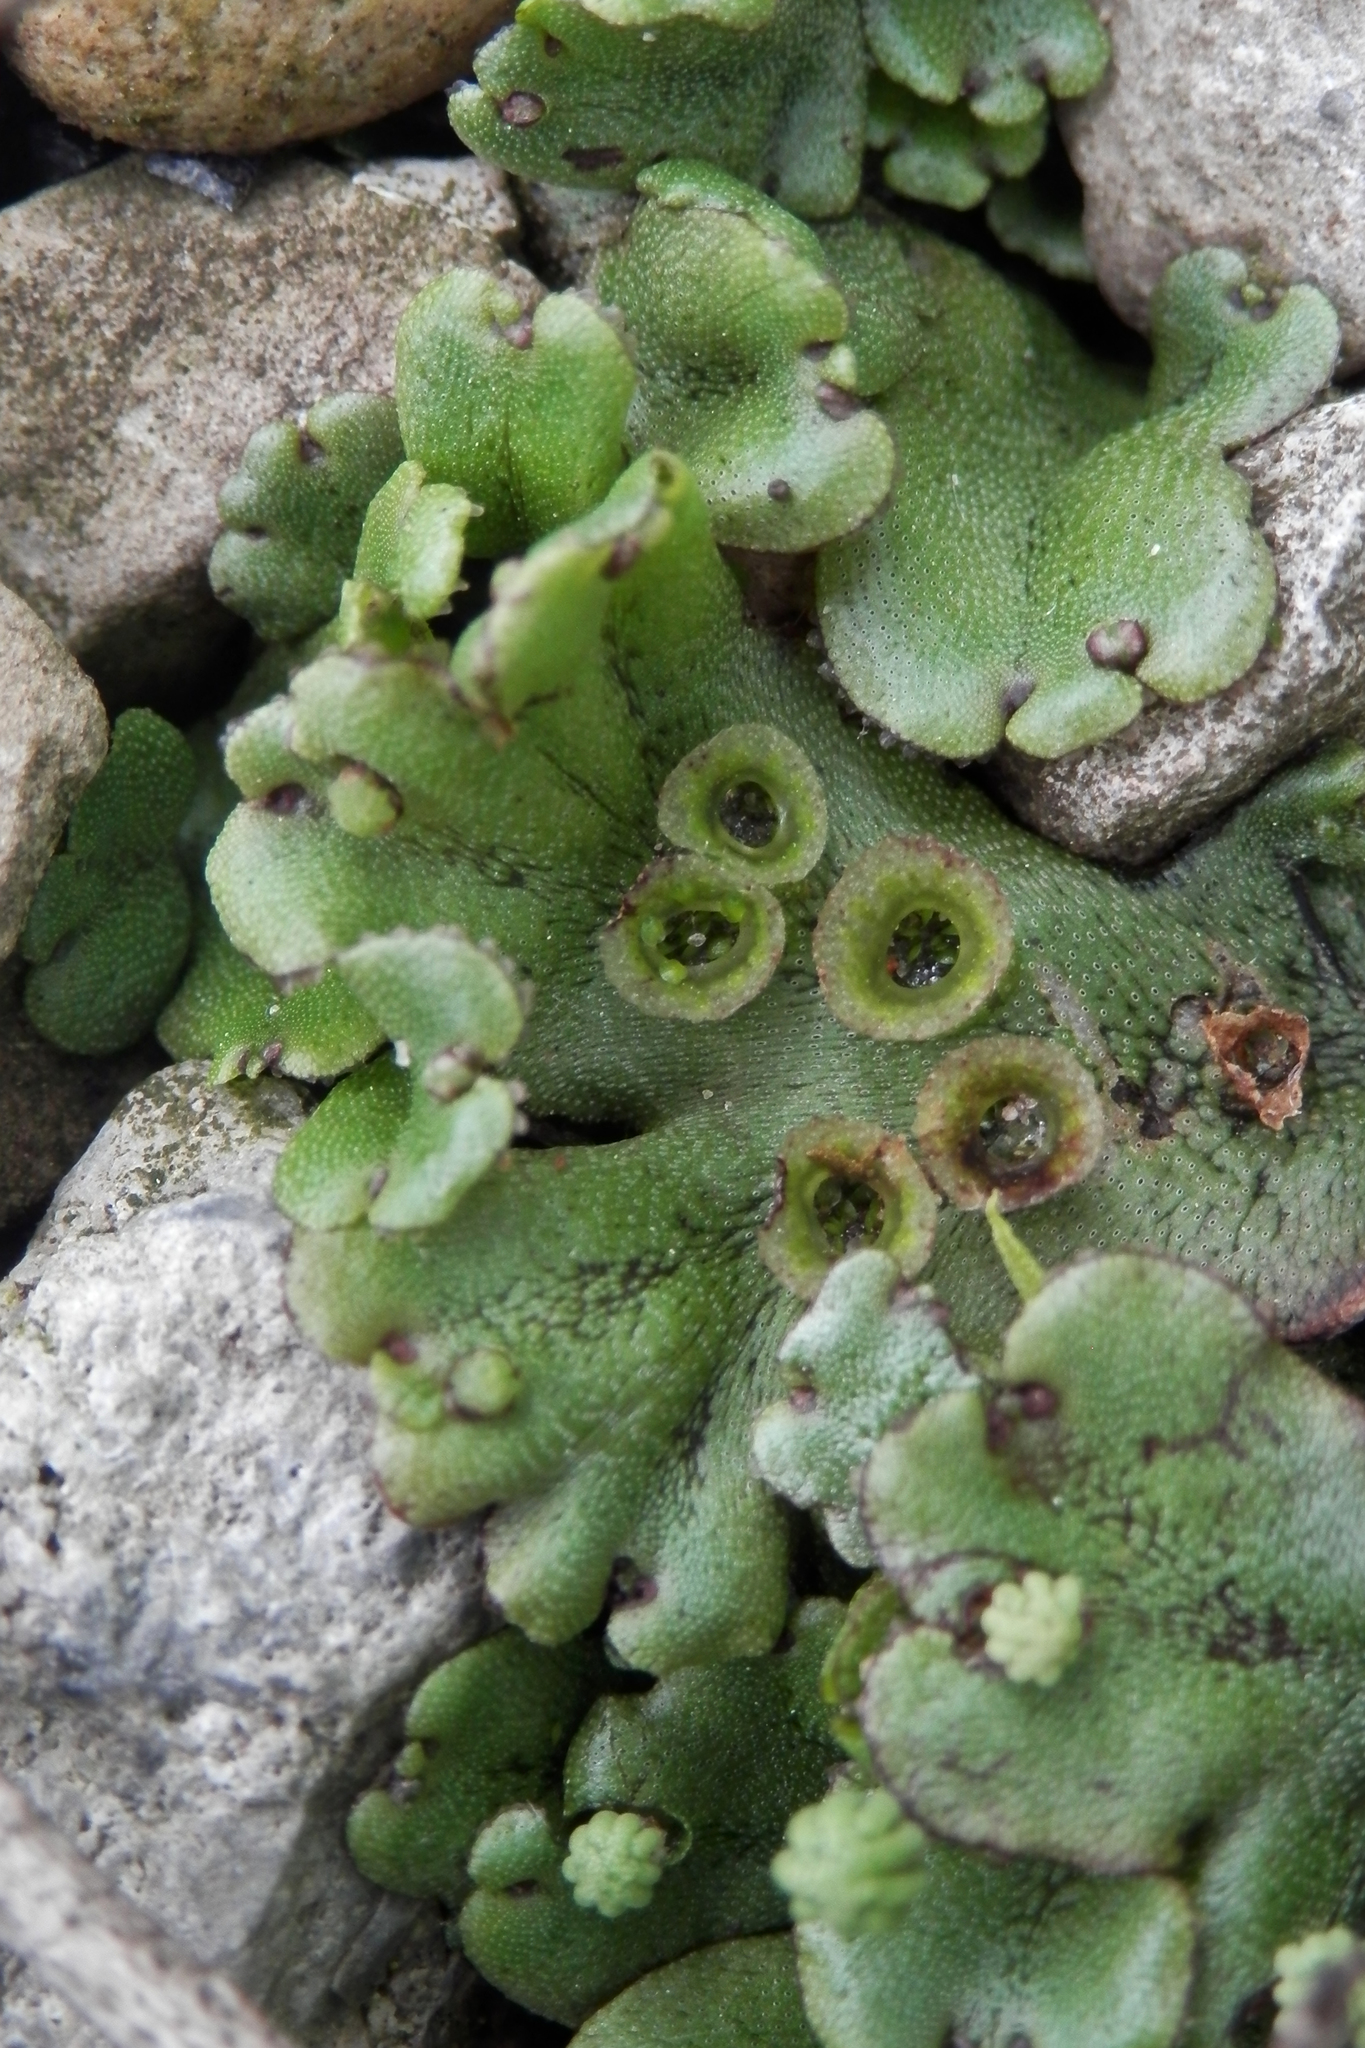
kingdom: Plantae
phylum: Marchantiophyta
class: Marchantiopsida
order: Marchantiales
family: Marchantiaceae
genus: Marchantia
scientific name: Marchantia polymorpha
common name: Common liverwort
